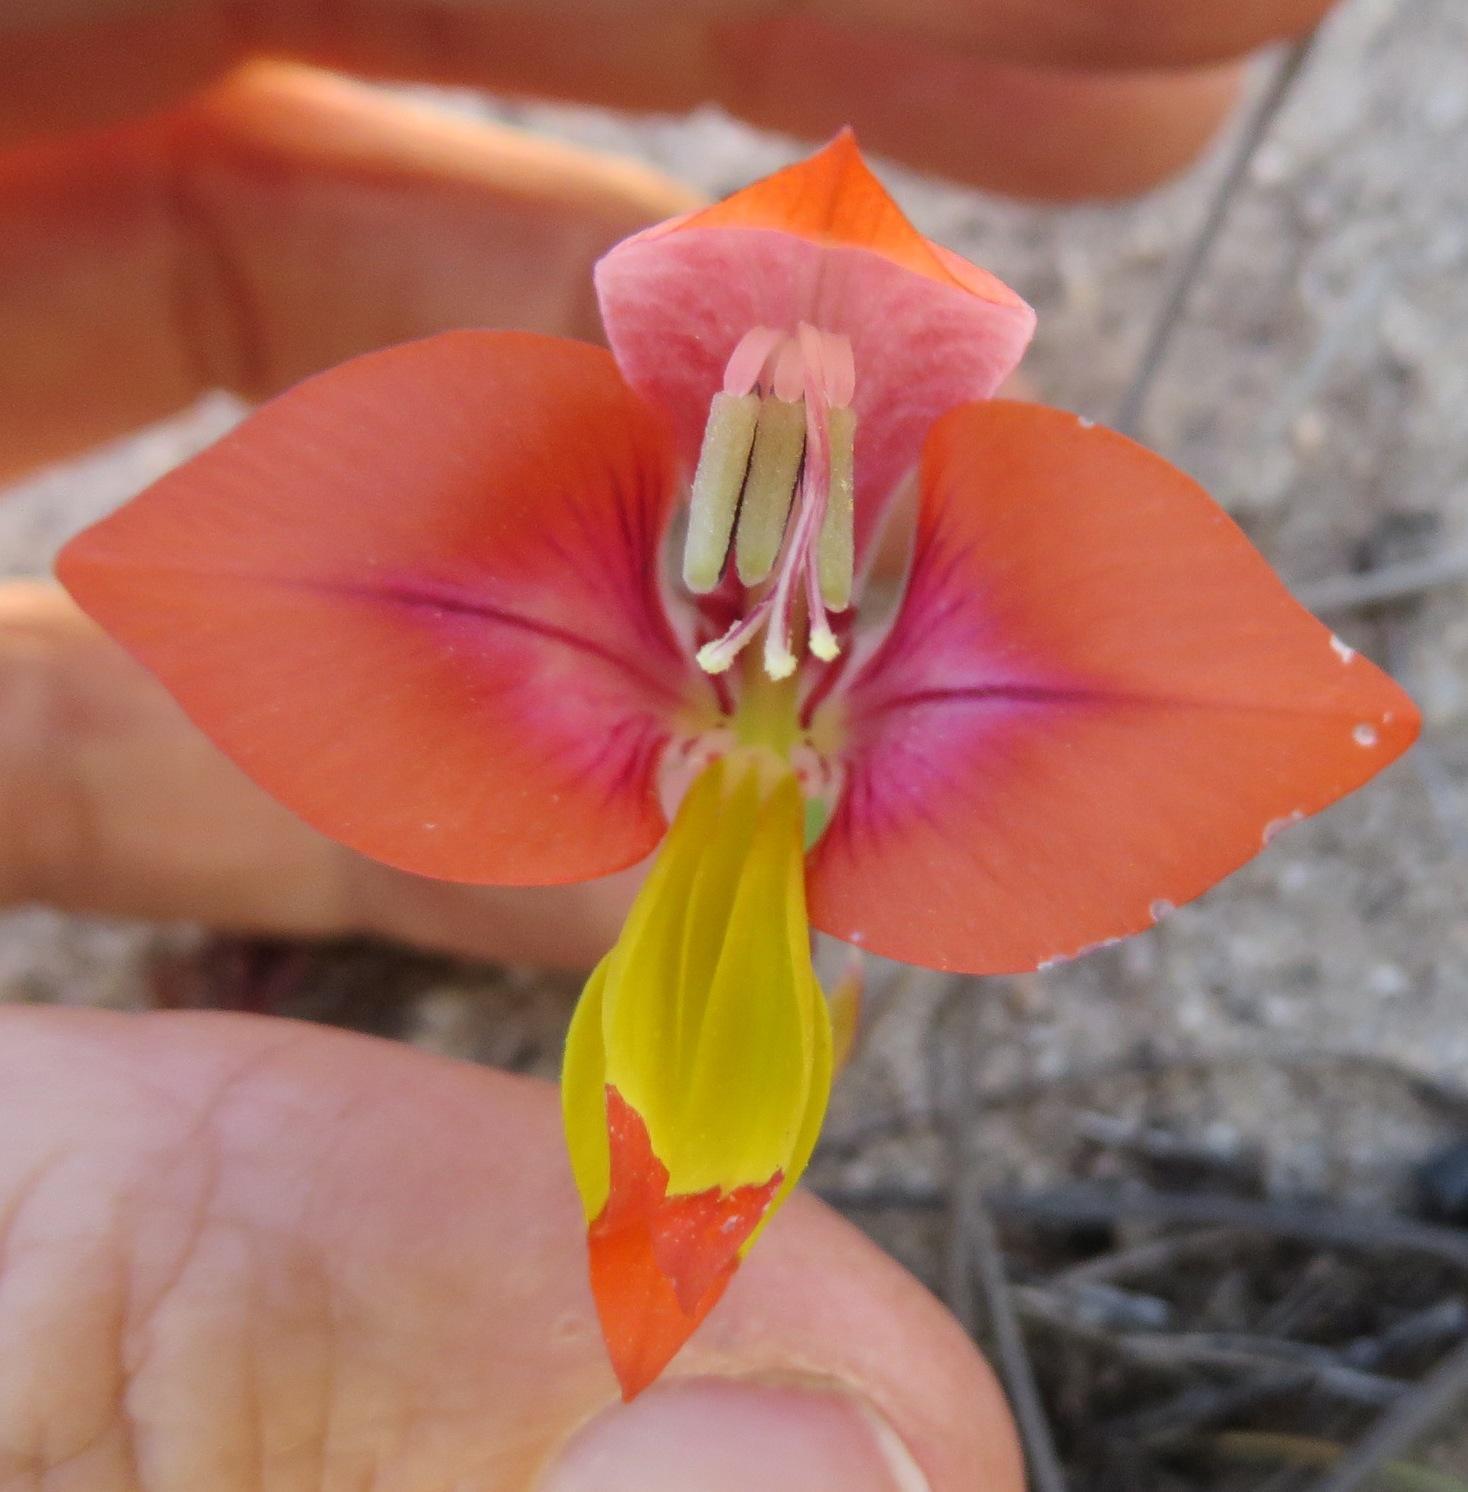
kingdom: Plantae
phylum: Tracheophyta
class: Liliopsida
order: Asparagales
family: Iridaceae
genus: Gladiolus
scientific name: Gladiolus speciosus
